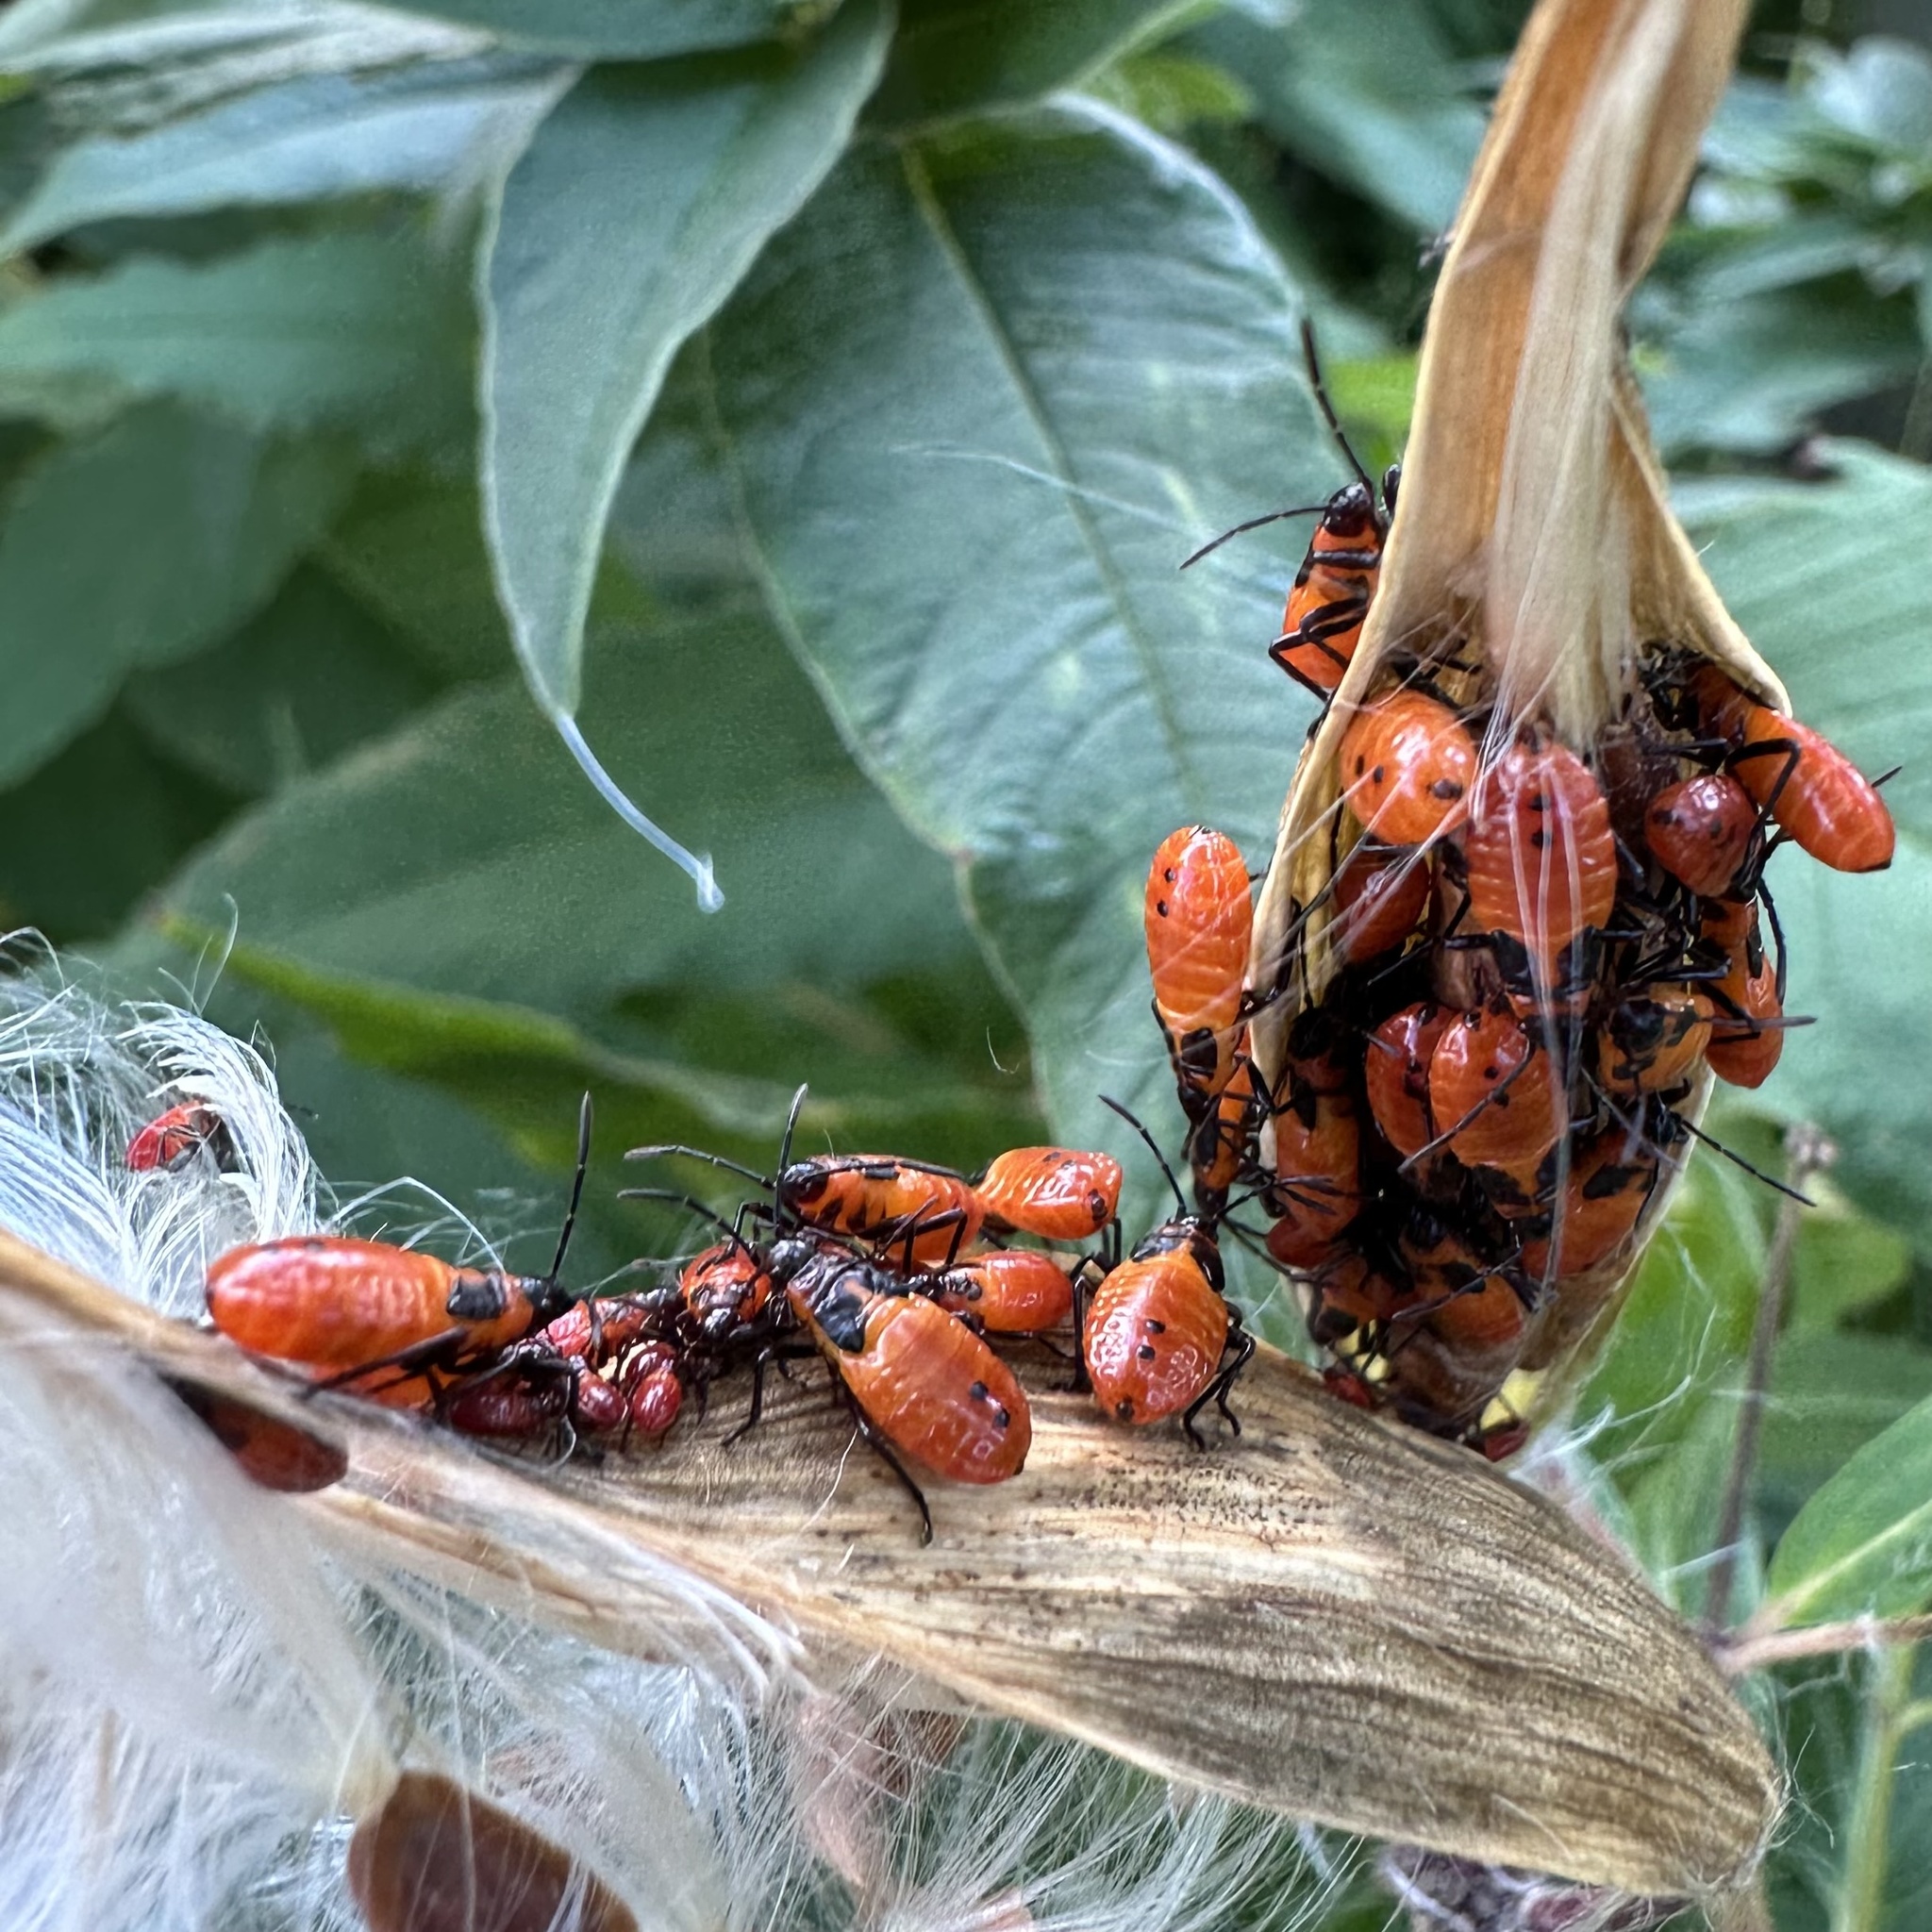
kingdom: Animalia
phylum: Arthropoda
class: Insecta
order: Hemiptera
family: Lygaeidae
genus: Oncopeltus
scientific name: Oncopeltus fasciatus
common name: Large milkweed bug
